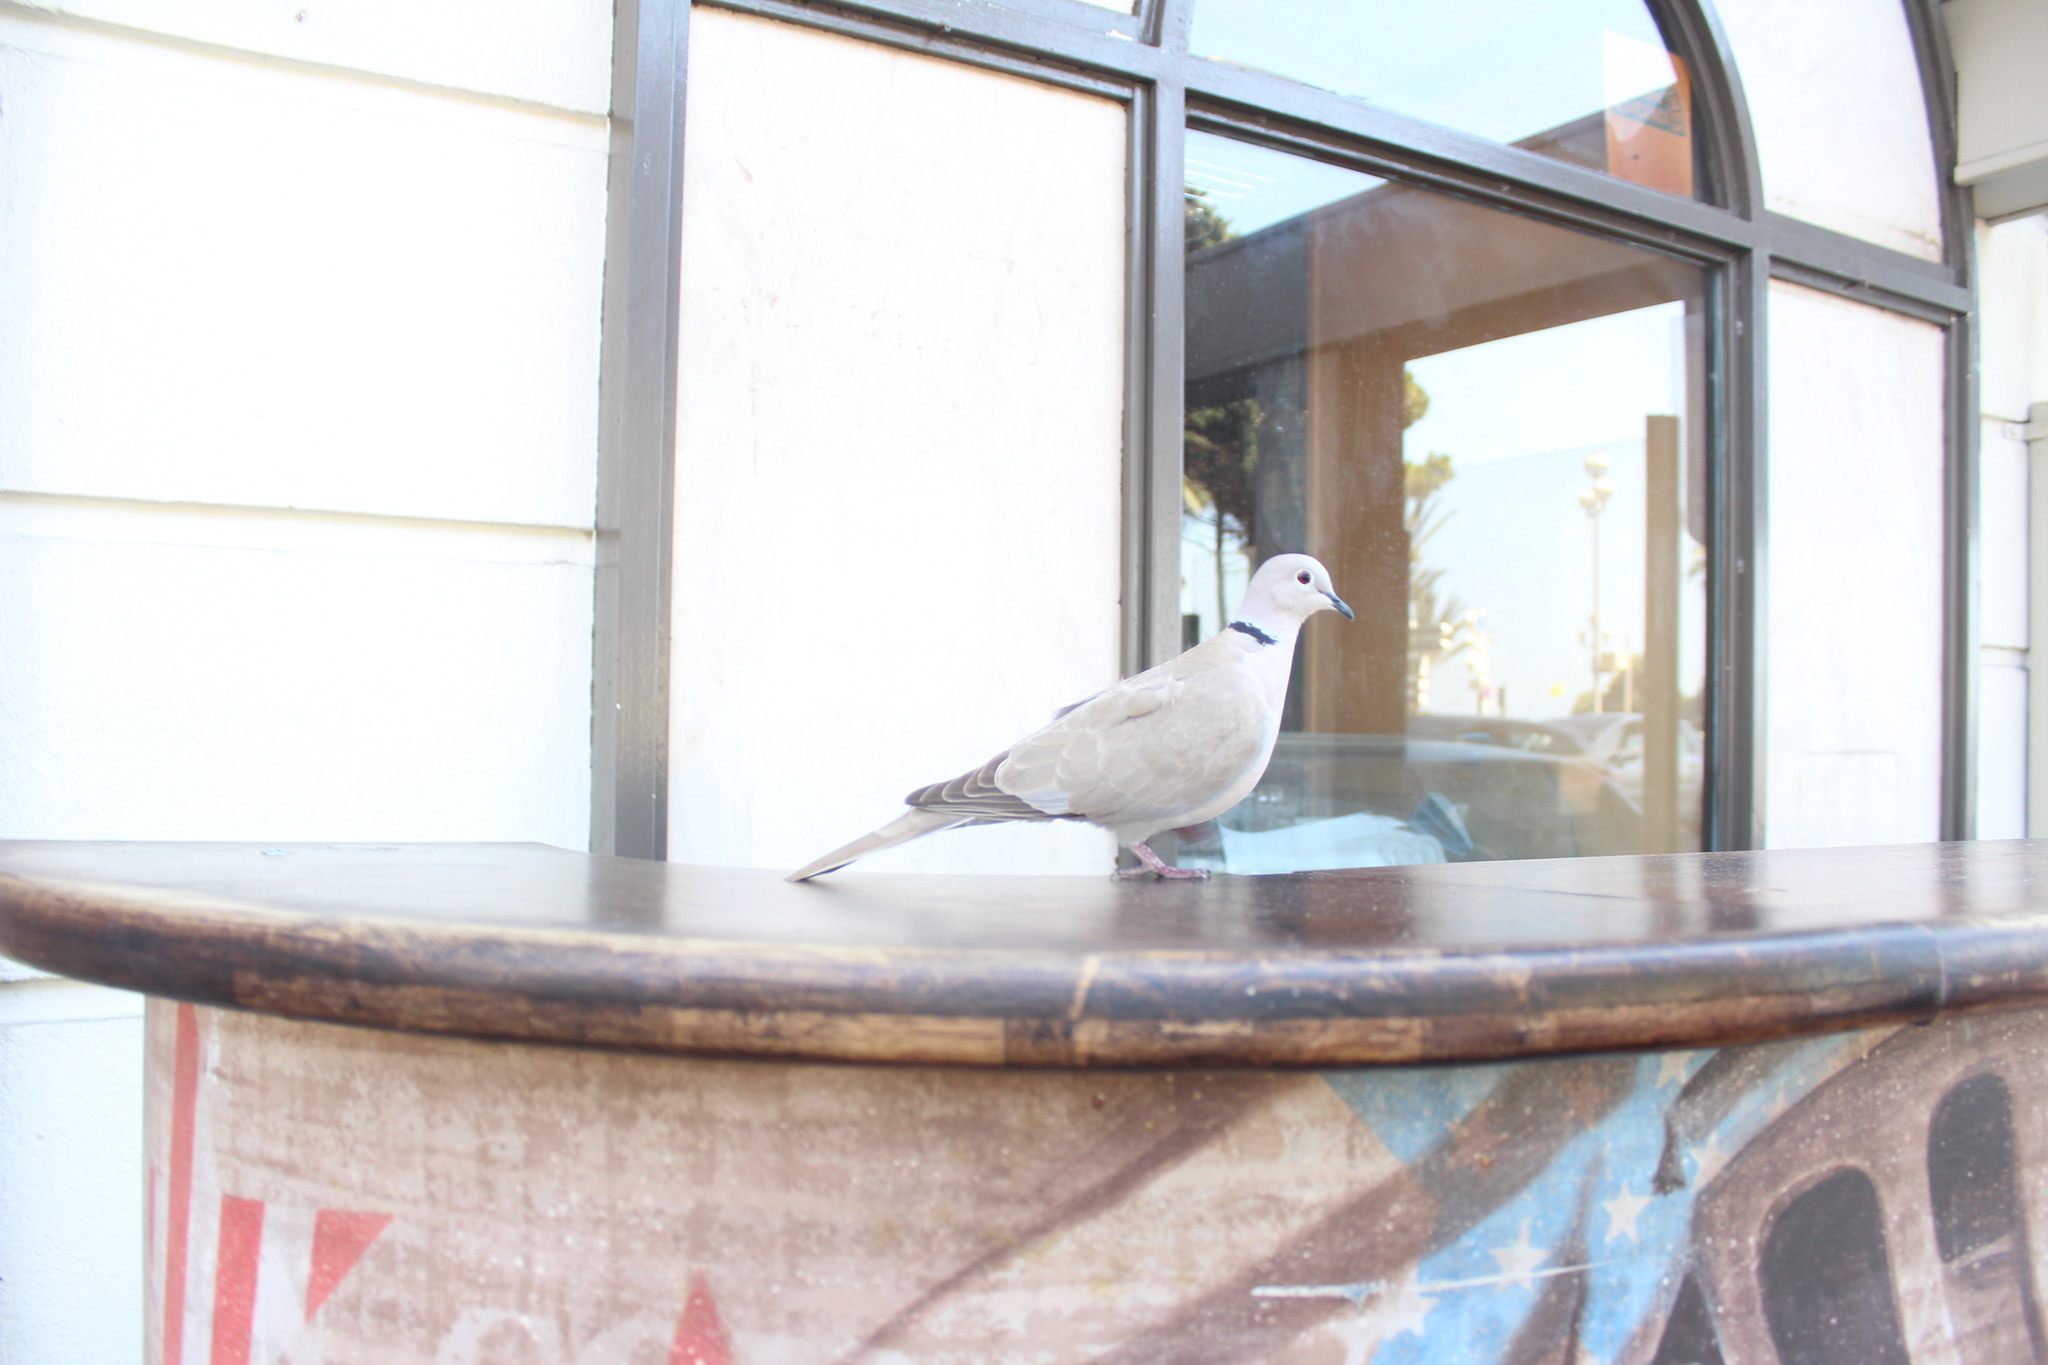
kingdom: Animalia
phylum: Chordata
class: Aves
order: Columbiformes
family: Columbidae
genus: Streptopelia
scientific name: Streptopelia decaocto
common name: Eurasian collared dove
